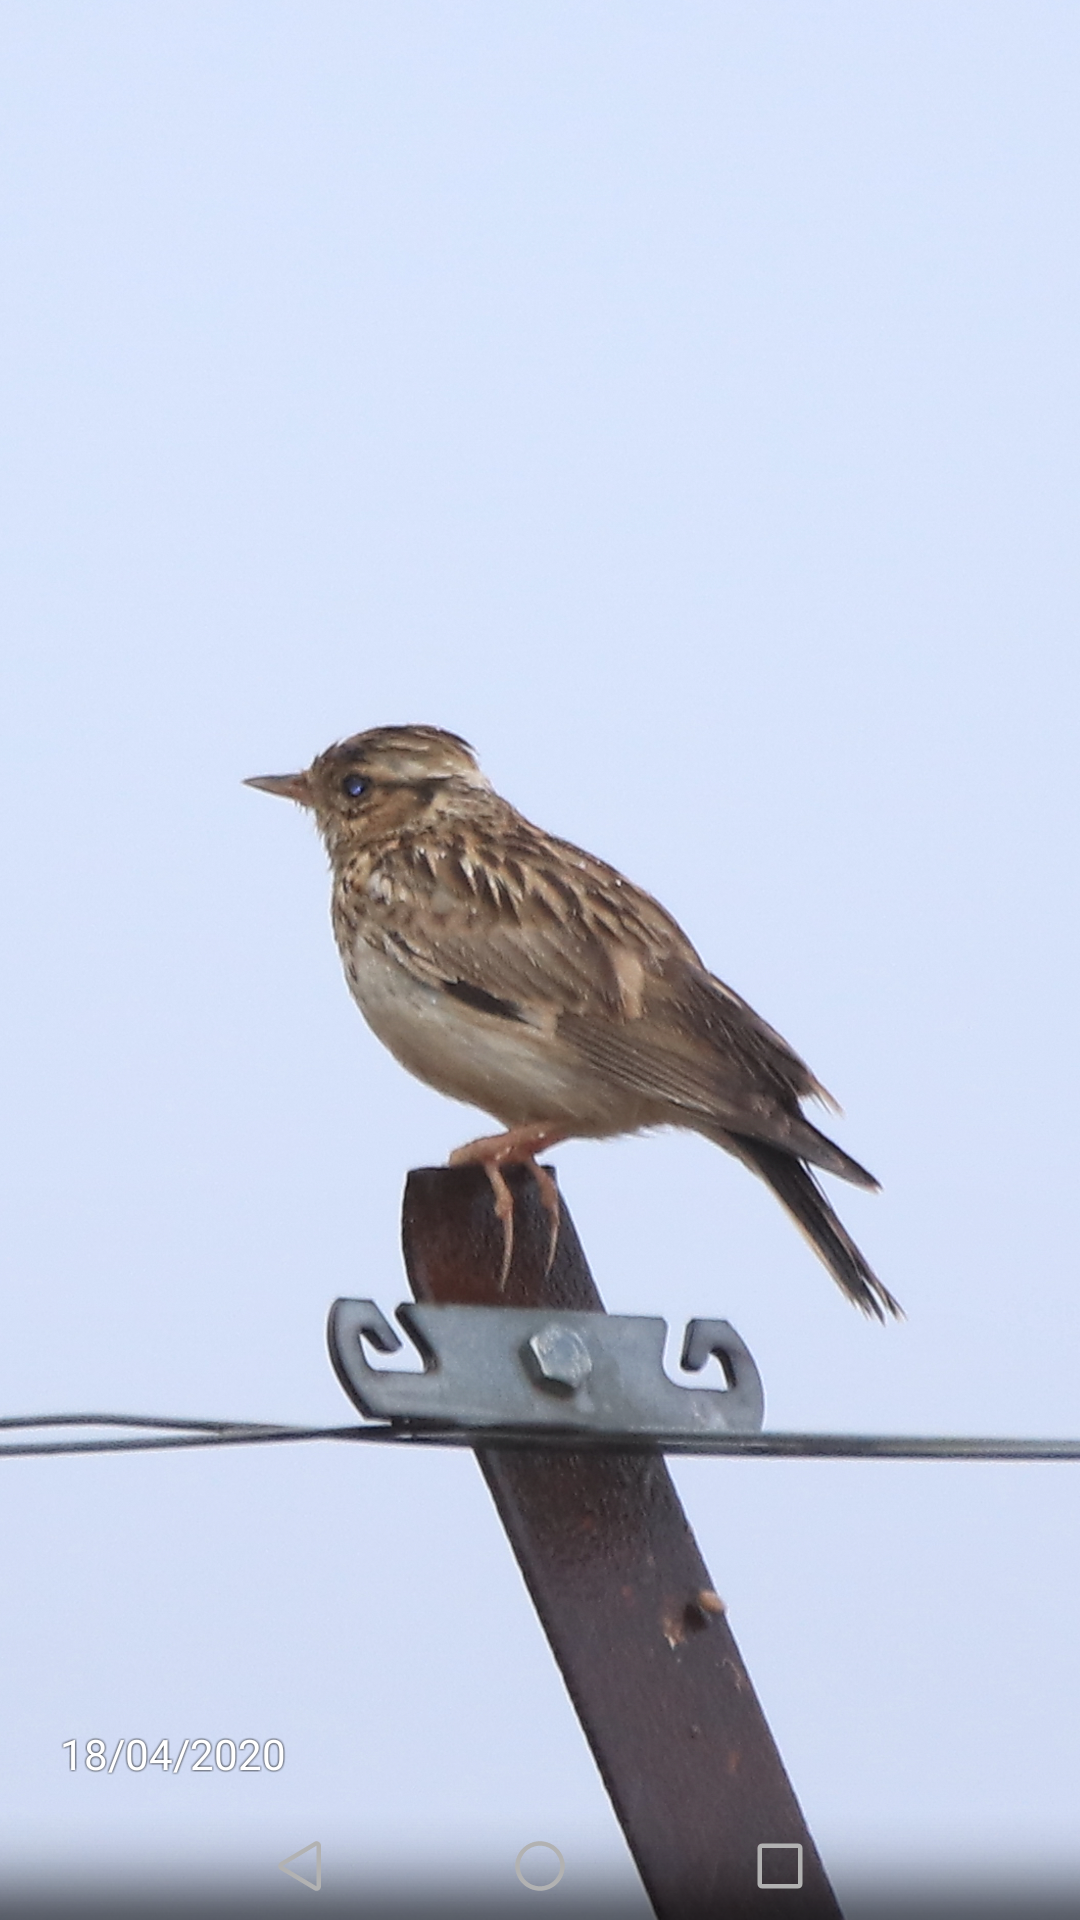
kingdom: Animalia
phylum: Chordata
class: Aves
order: Passeriformes
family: Alaudidae
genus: Lullula
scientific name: Lullula arborea
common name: Woodlark
